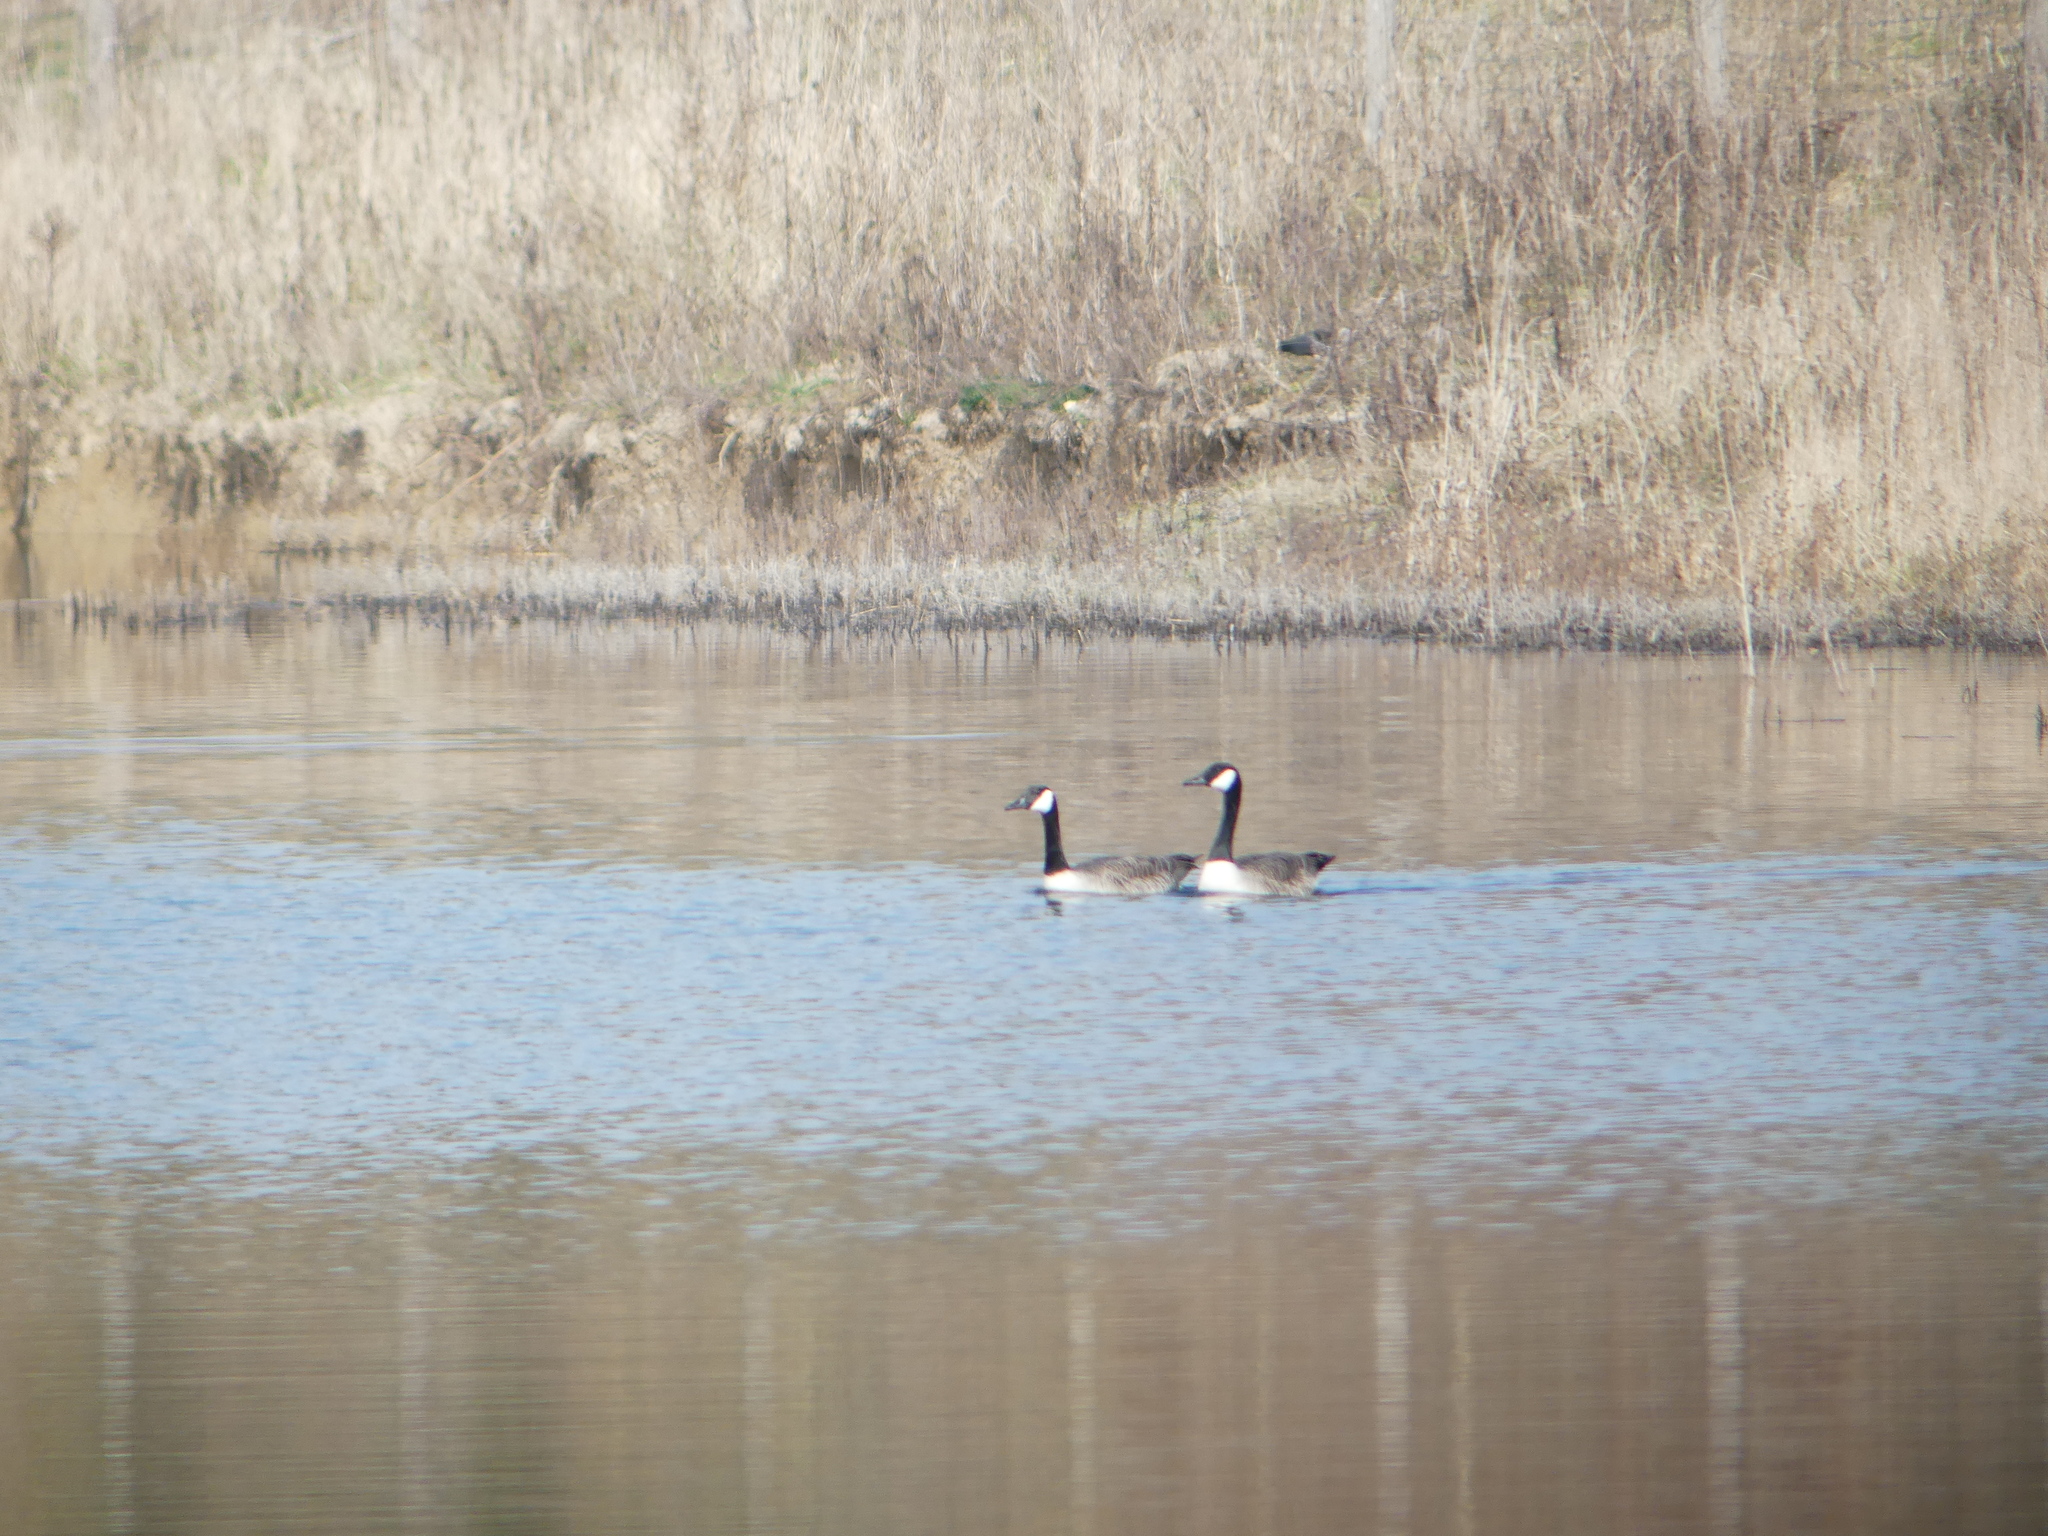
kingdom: Animalia
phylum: Chordata
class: Aves
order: Anseriformes
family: Anatidae
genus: Branta
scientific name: Branta canadensis
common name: Canada goose
